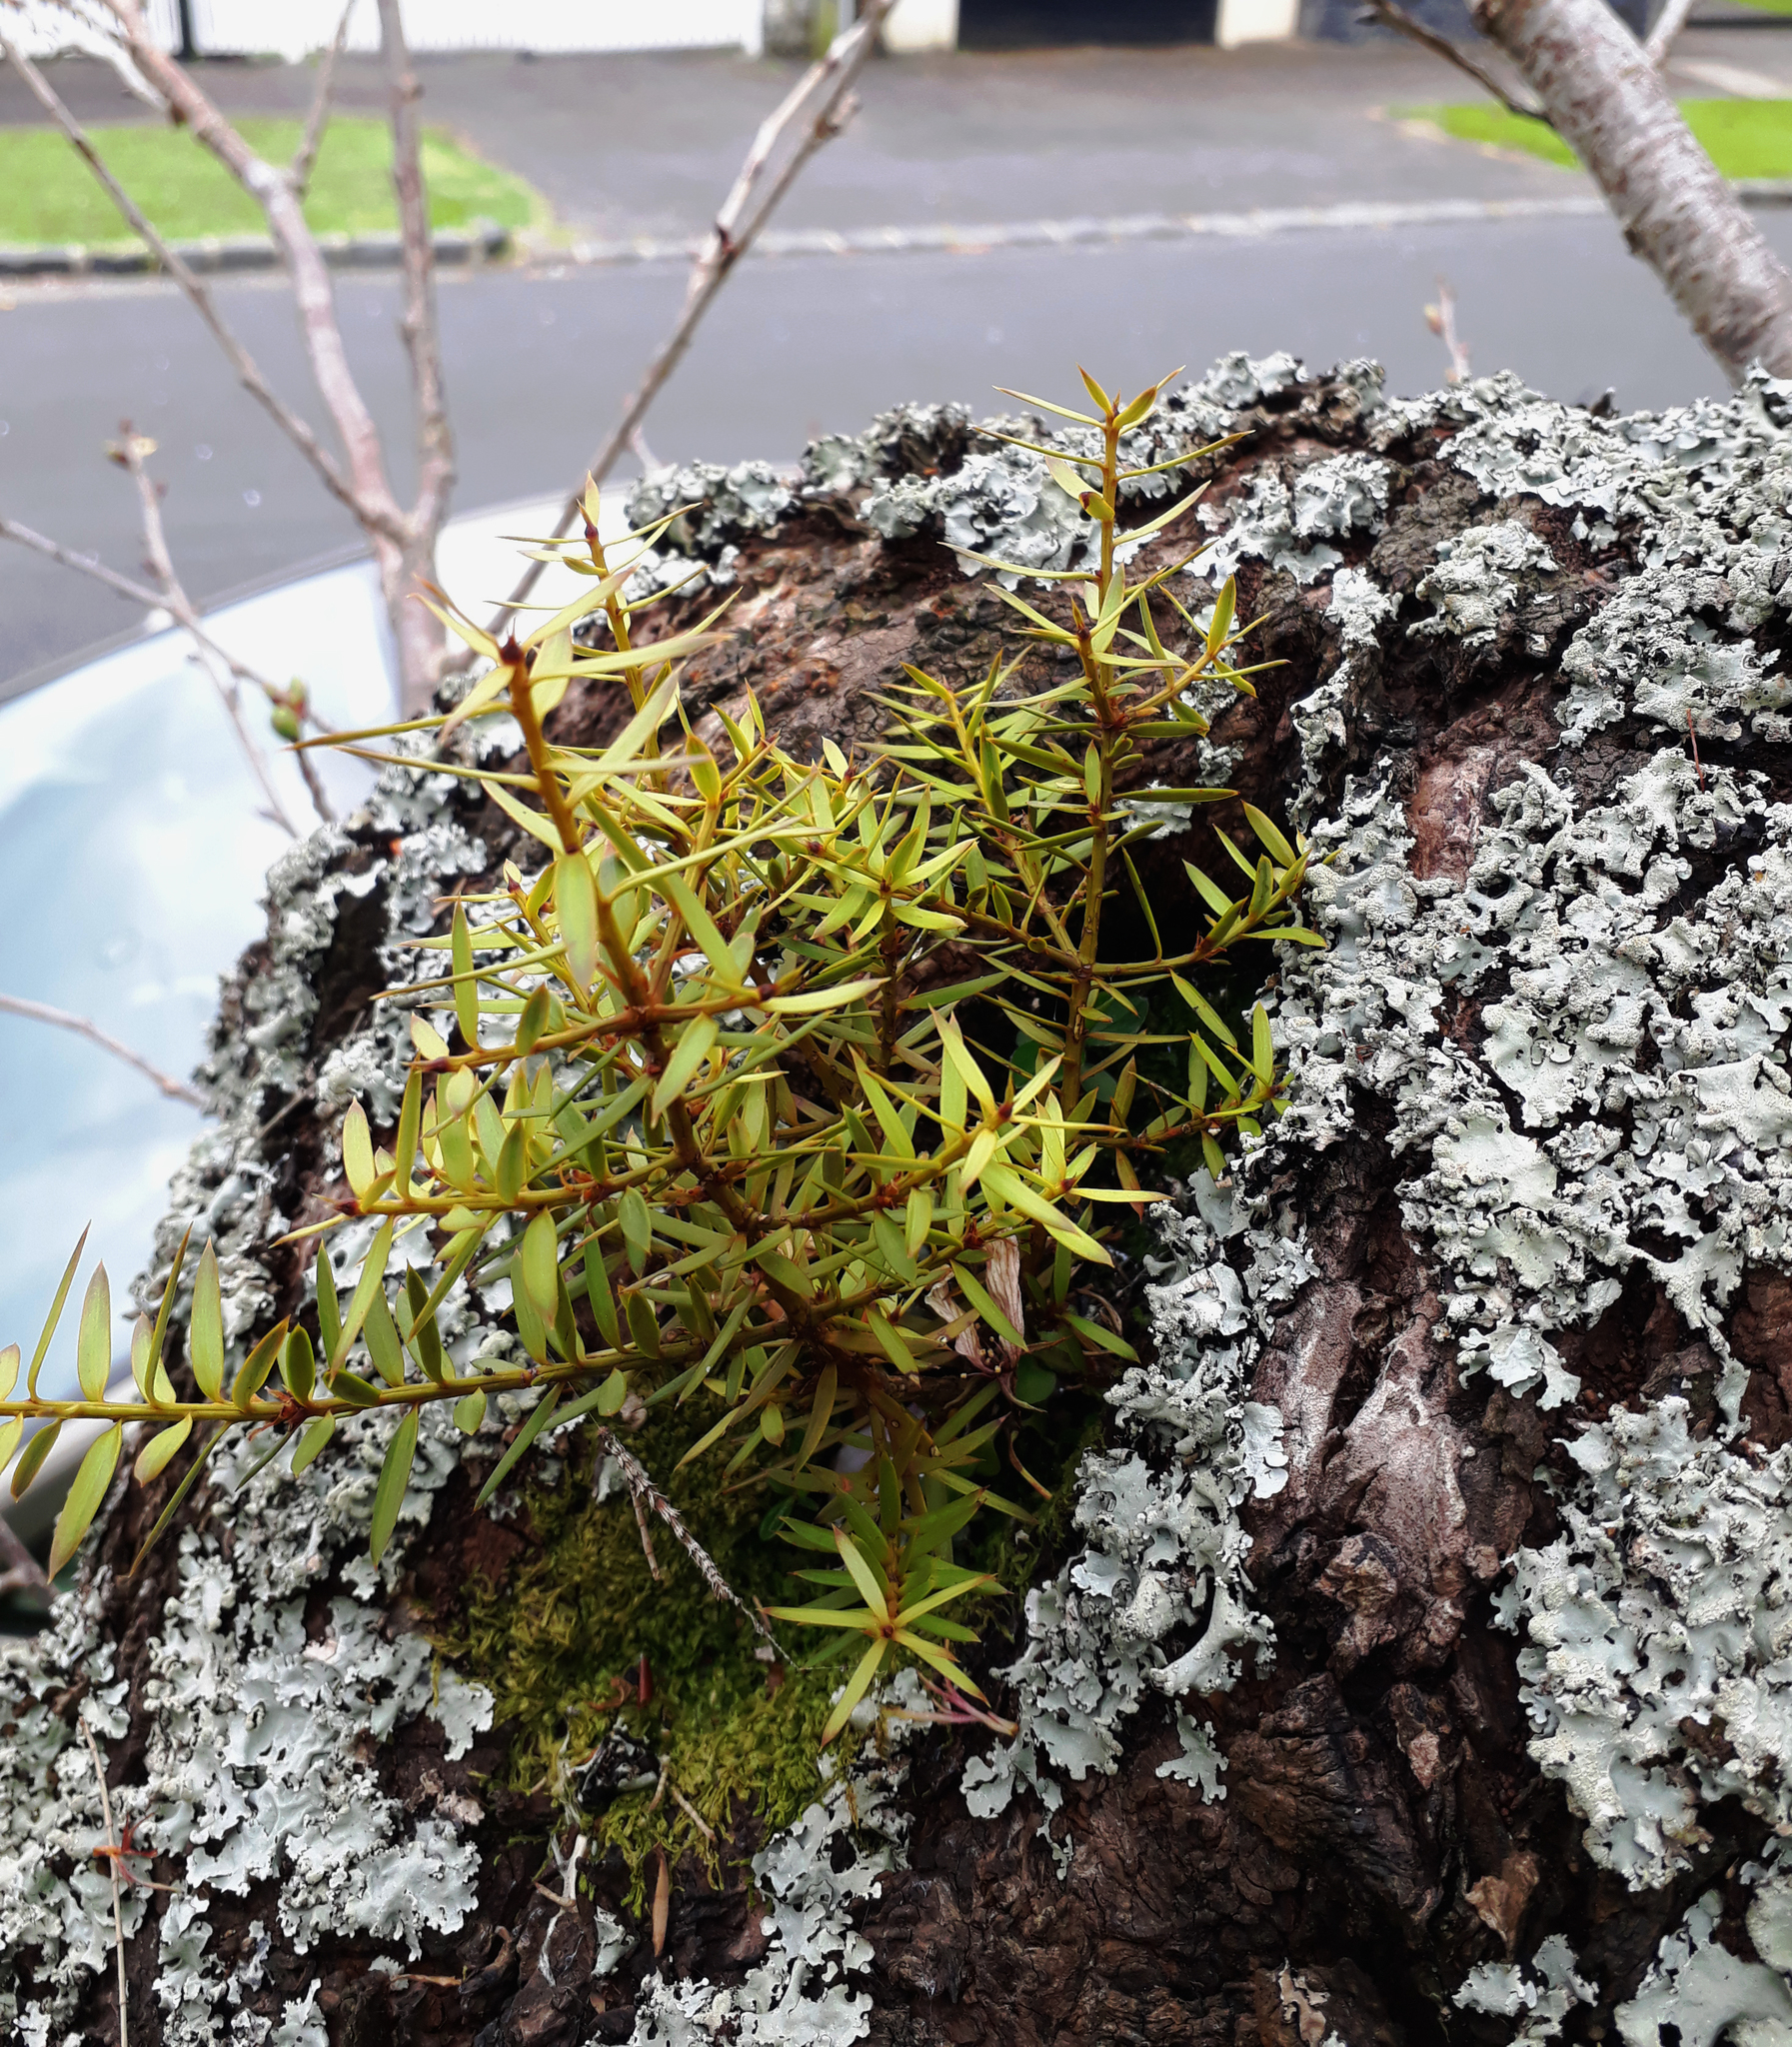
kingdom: Plantae
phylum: Tracheophyta
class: Pinopsida
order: Pinales
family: Podocarpaceae
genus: Podocarpus
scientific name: Podocarpus totara
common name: Totara
